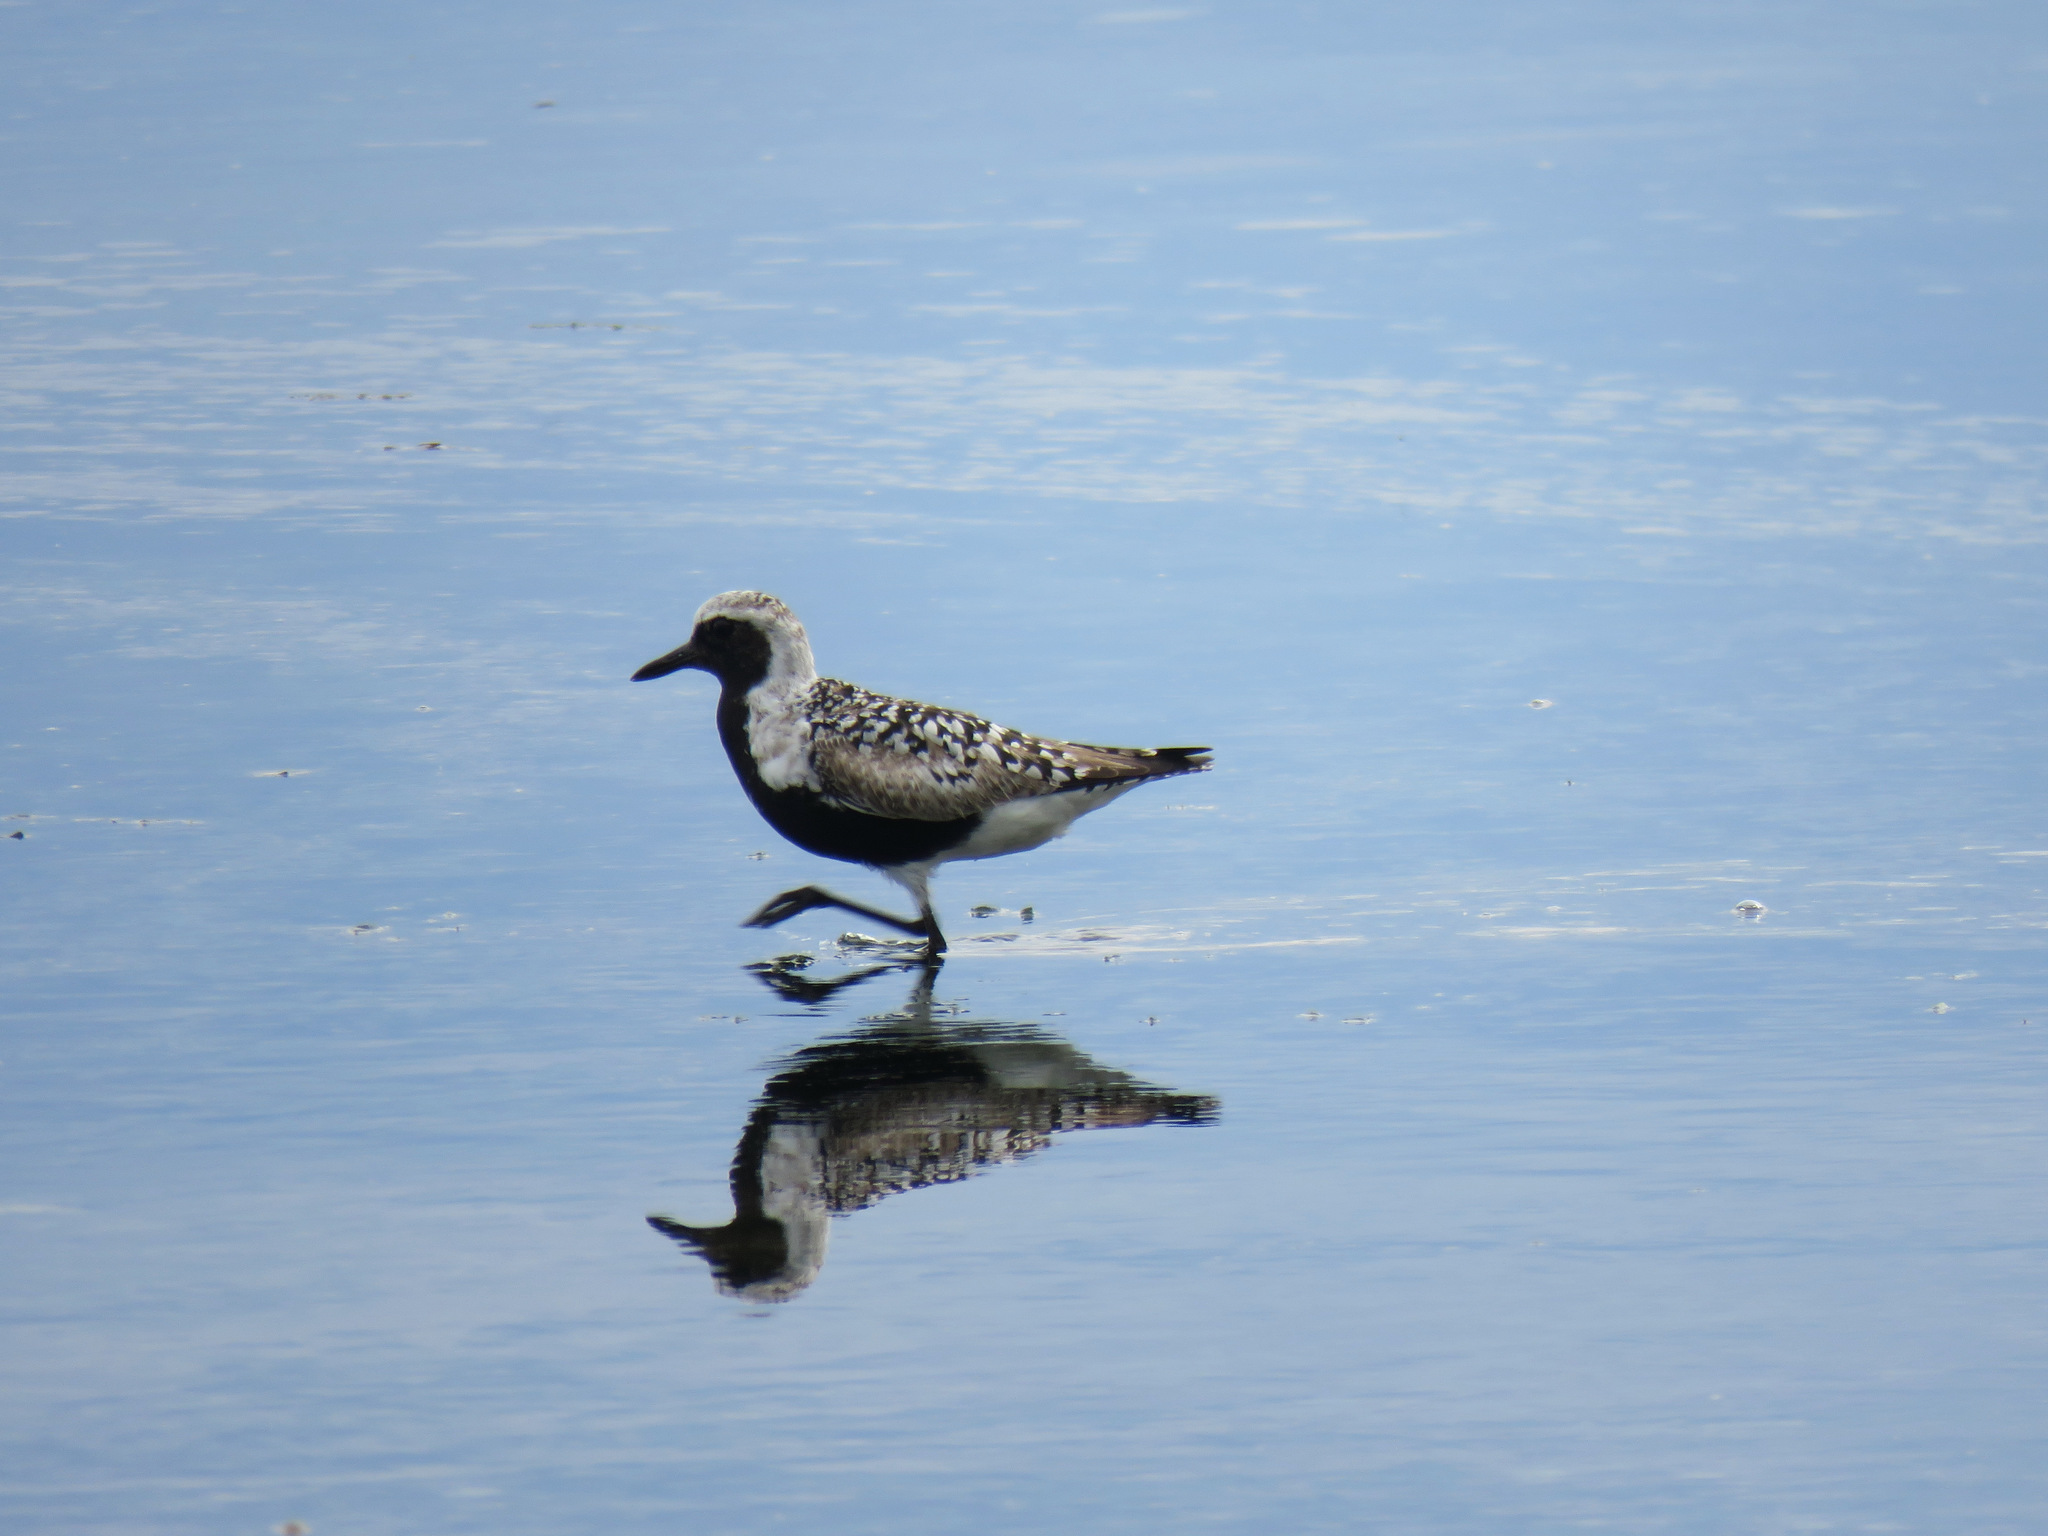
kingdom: Animalia
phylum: Chordata
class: Aves
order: Charadriiformes
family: Charadriidae
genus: Pluvialis
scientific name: Pluvialis squatarola
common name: Grey plover
